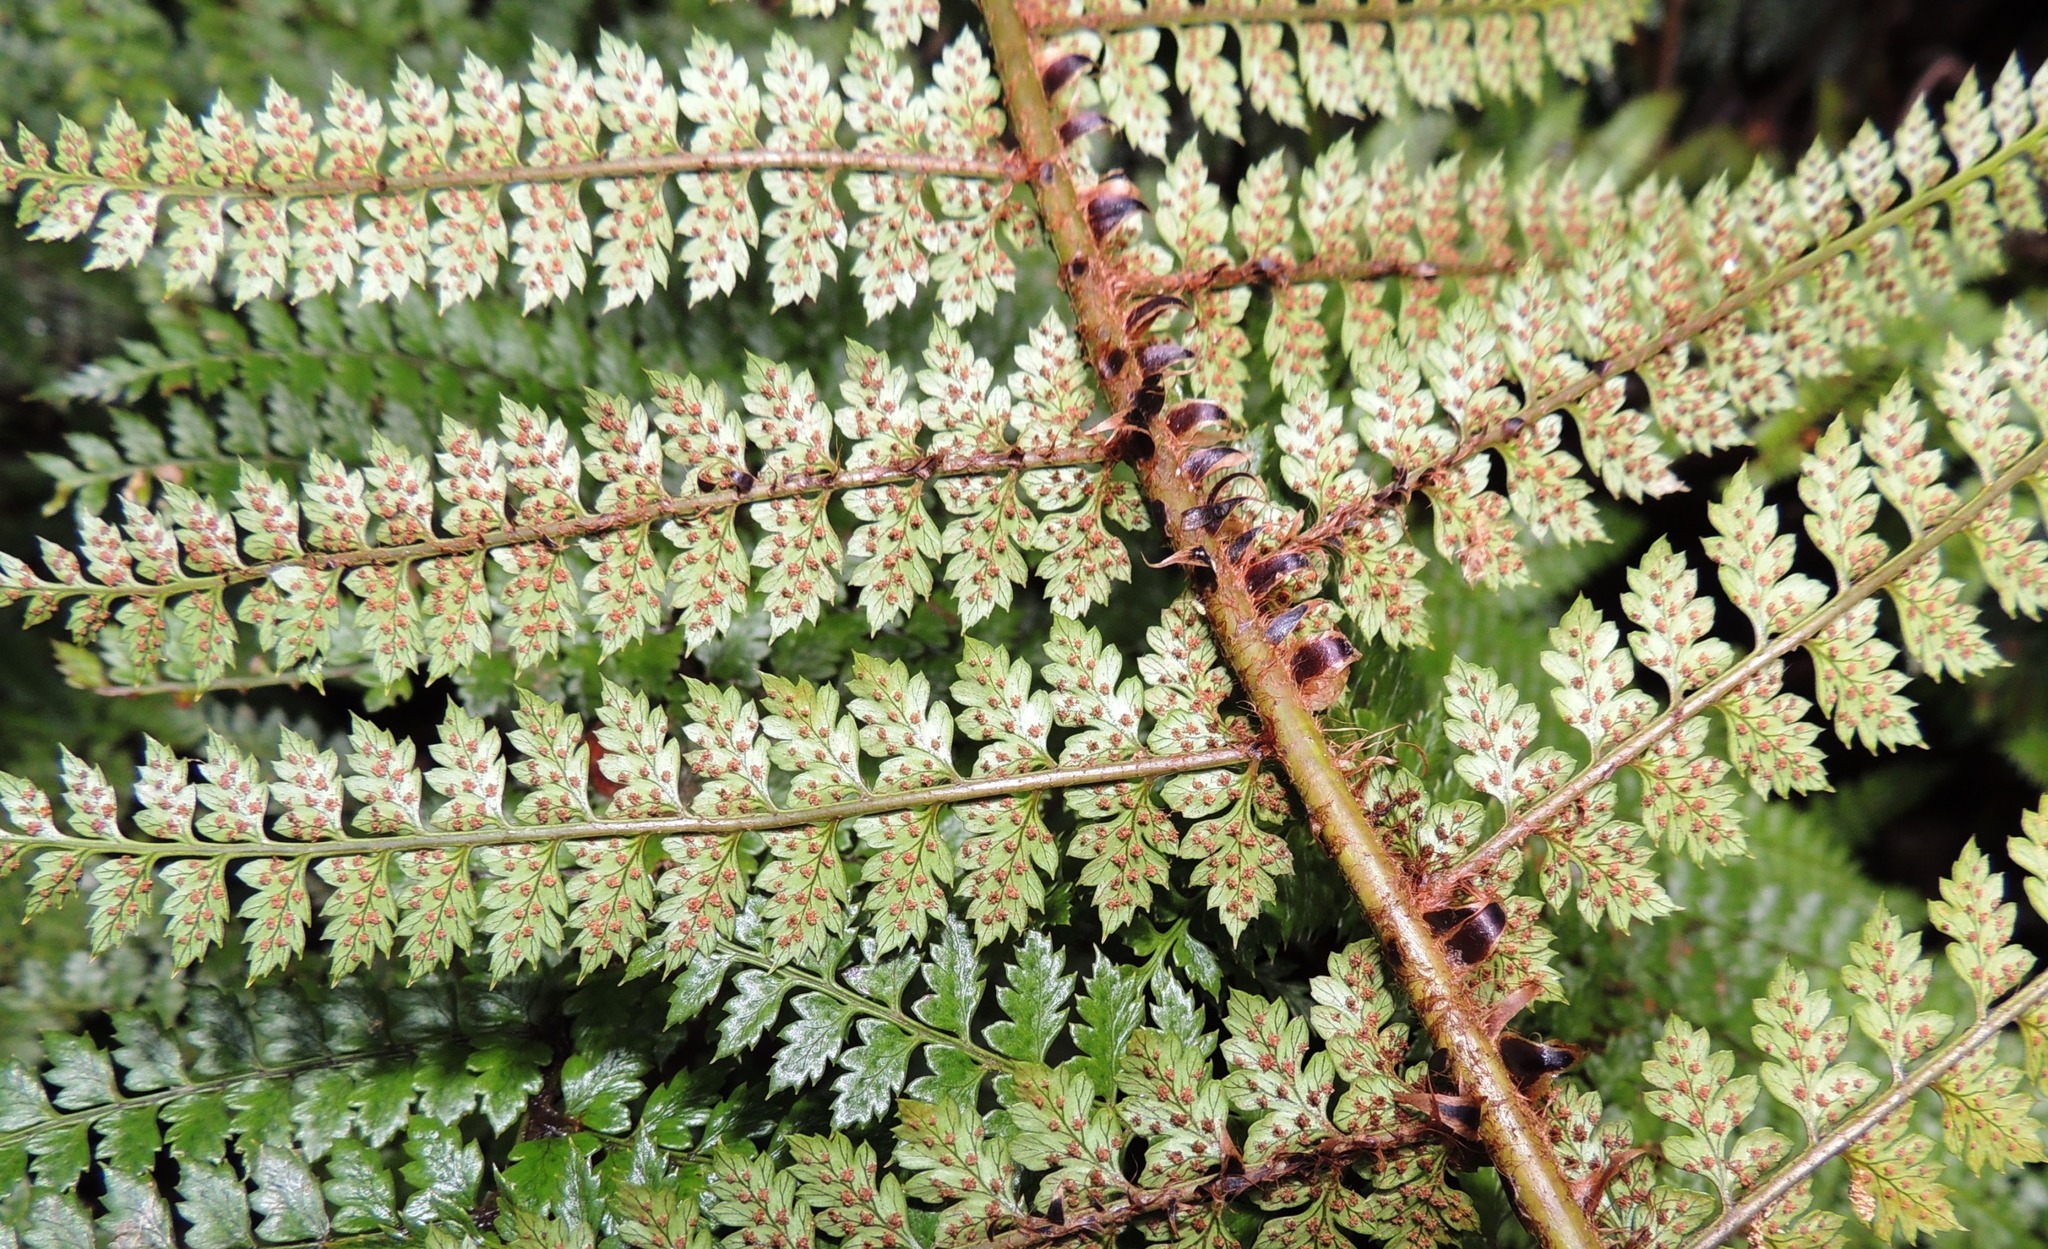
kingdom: Plantae
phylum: Tracheophyta
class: Polypodiopsida
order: Polypodiales
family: Dryopteridaceae
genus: Polystichum
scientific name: Polystichum vestitum
